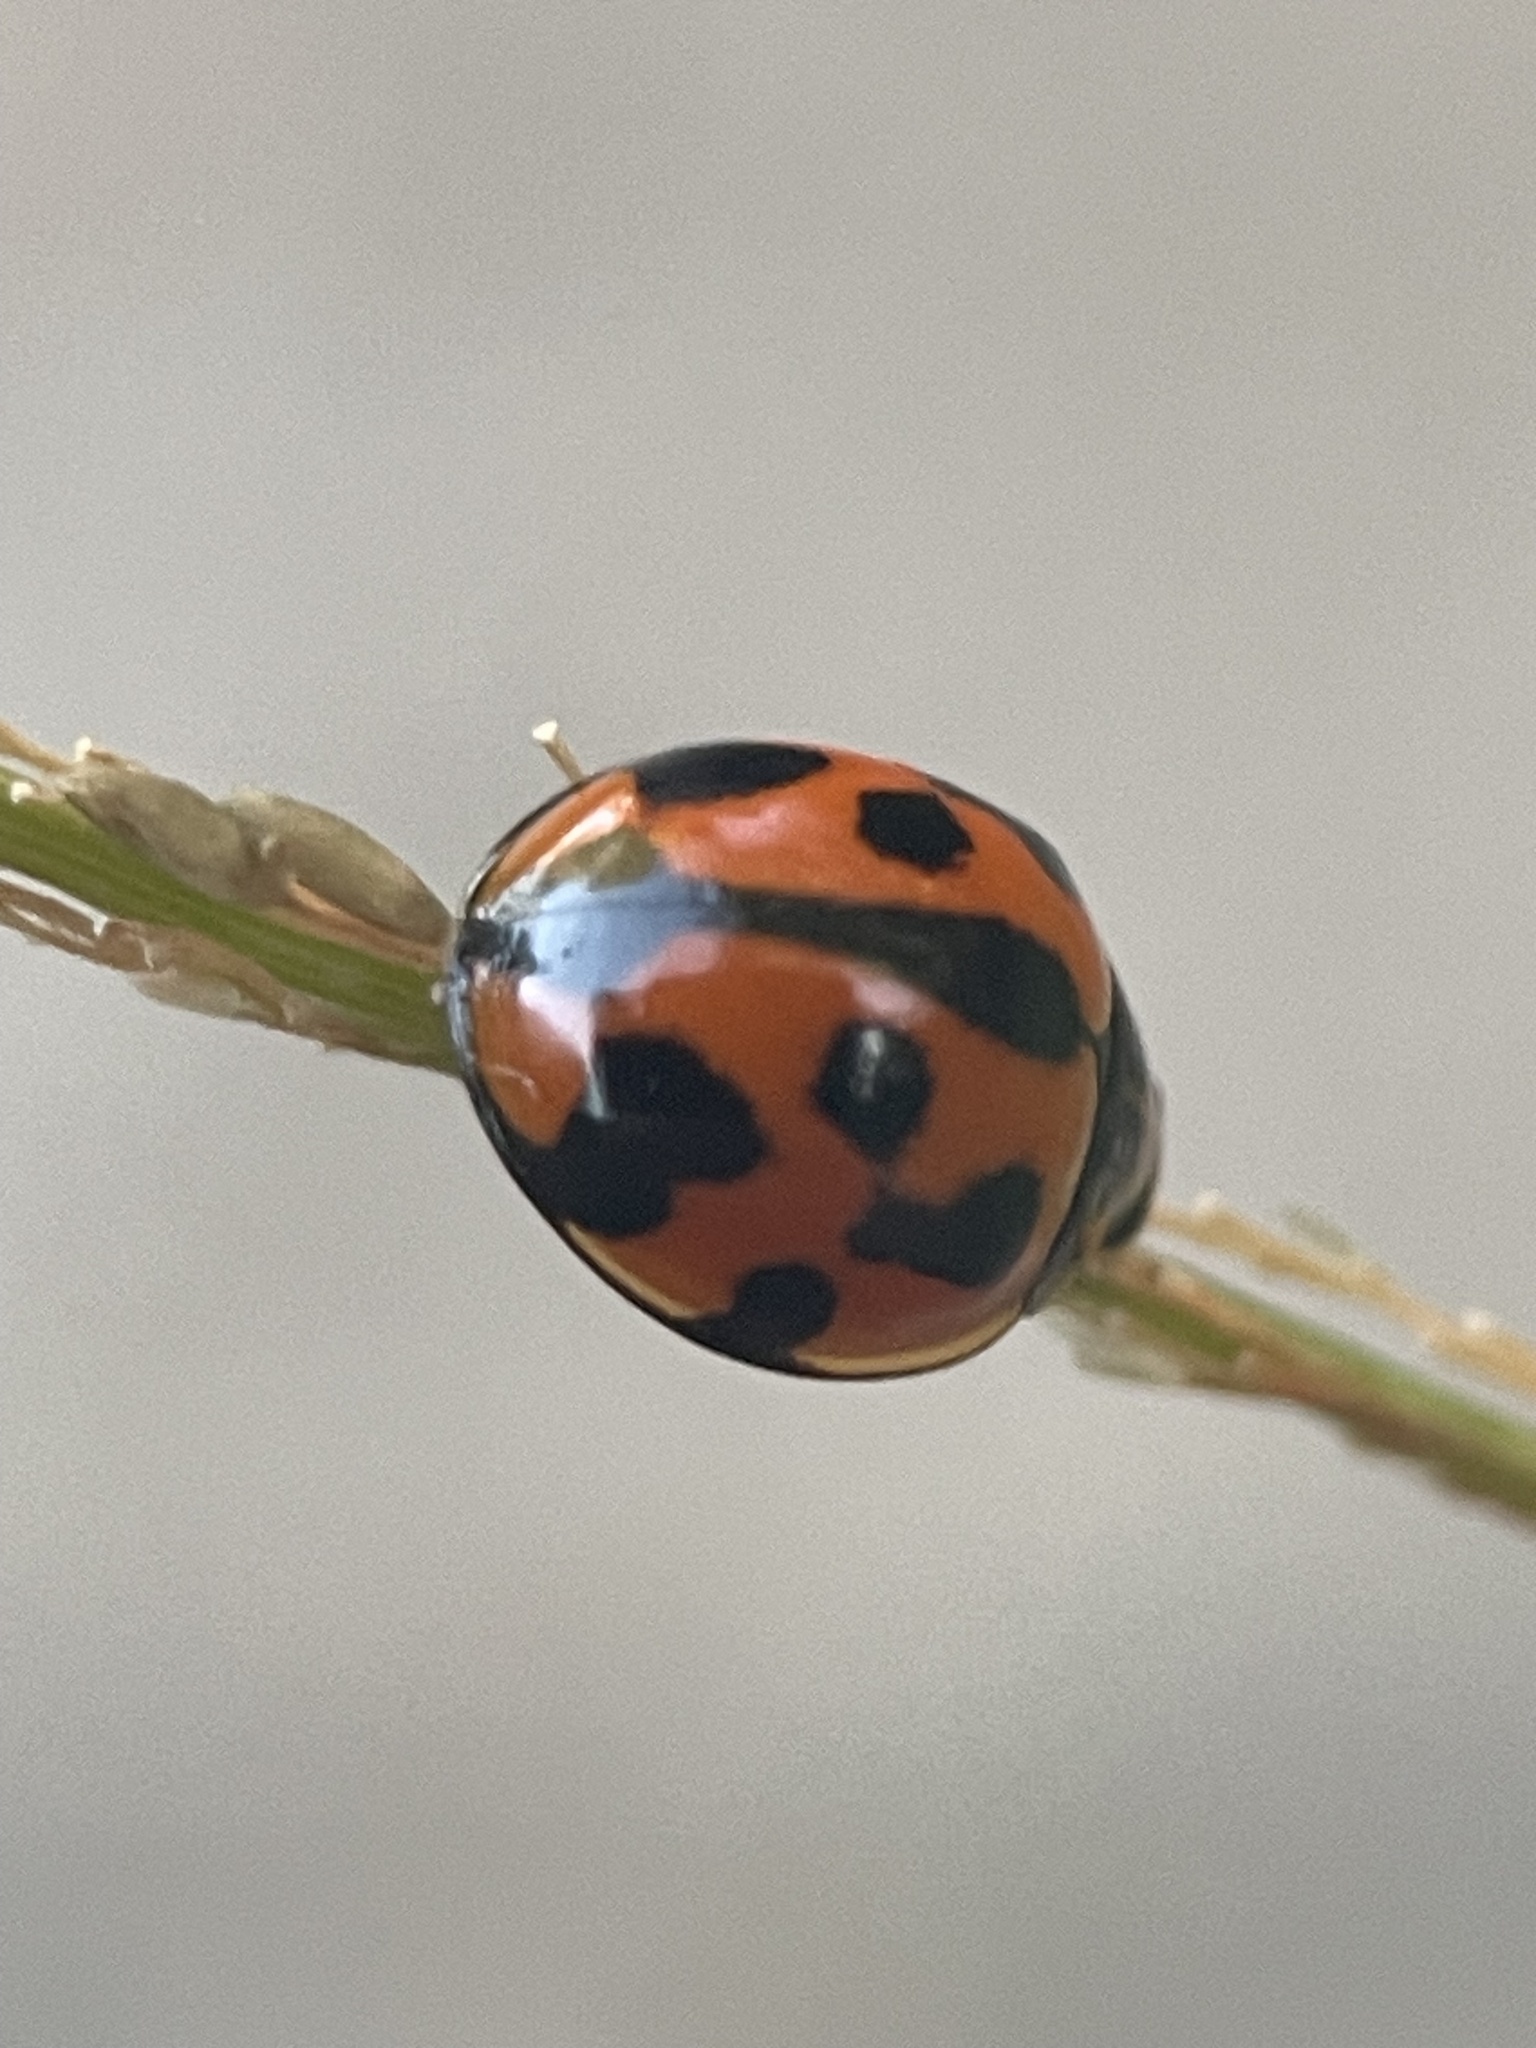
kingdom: Animalia
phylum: Arthropoda
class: Insecta
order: Coleoptera
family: Coccinellidae
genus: Coelophora
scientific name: Coelophora inaequalis
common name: Common australian lady beetle
